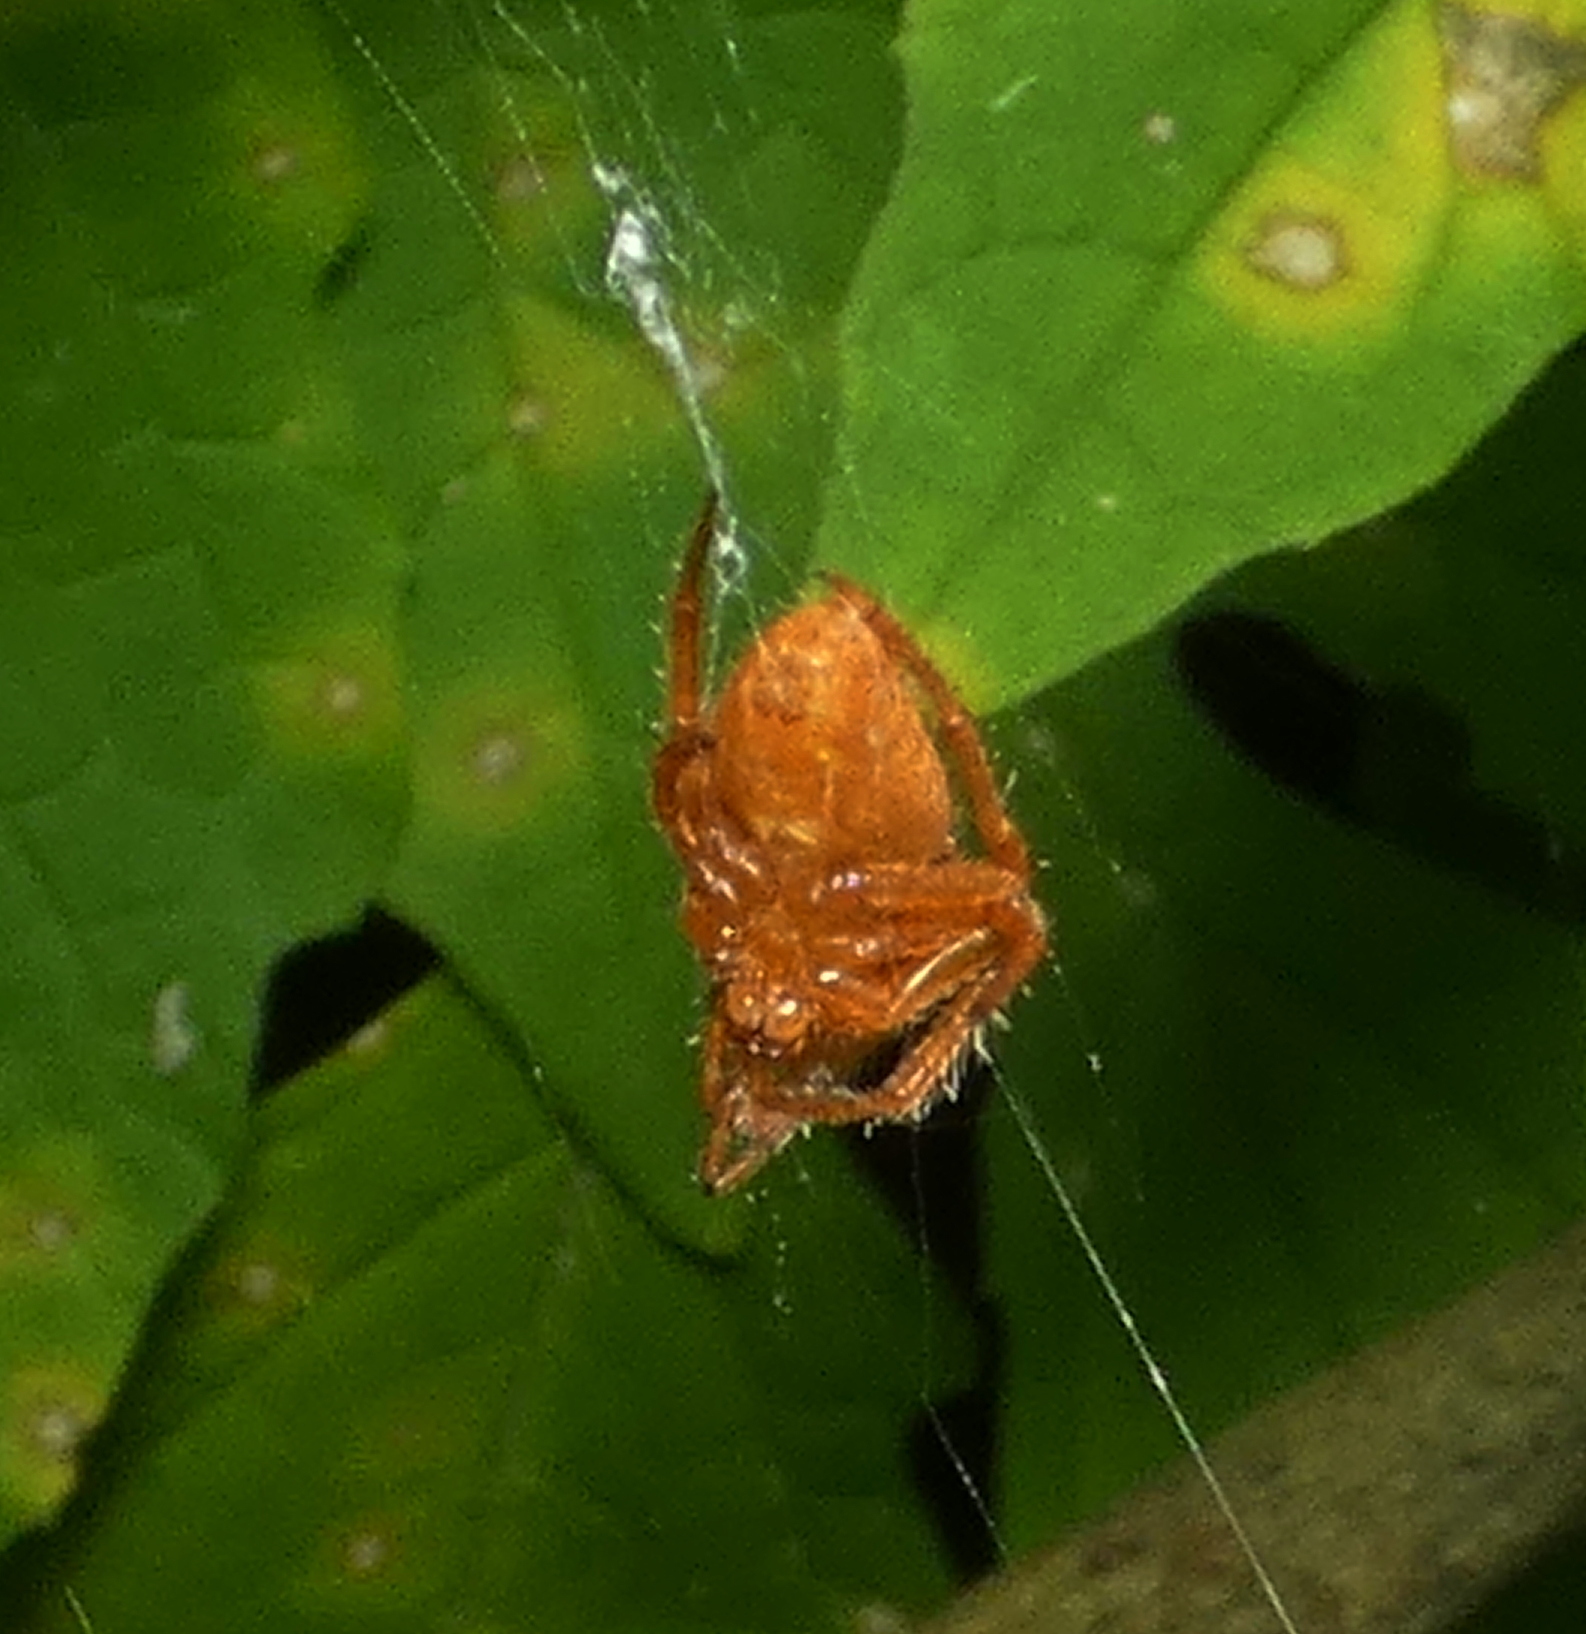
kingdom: Animalia
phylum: Arthropoda
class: Arachnida
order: Araneae
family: Araneidae
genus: Eriophora
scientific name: Eriophora edax
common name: Orb weavers
